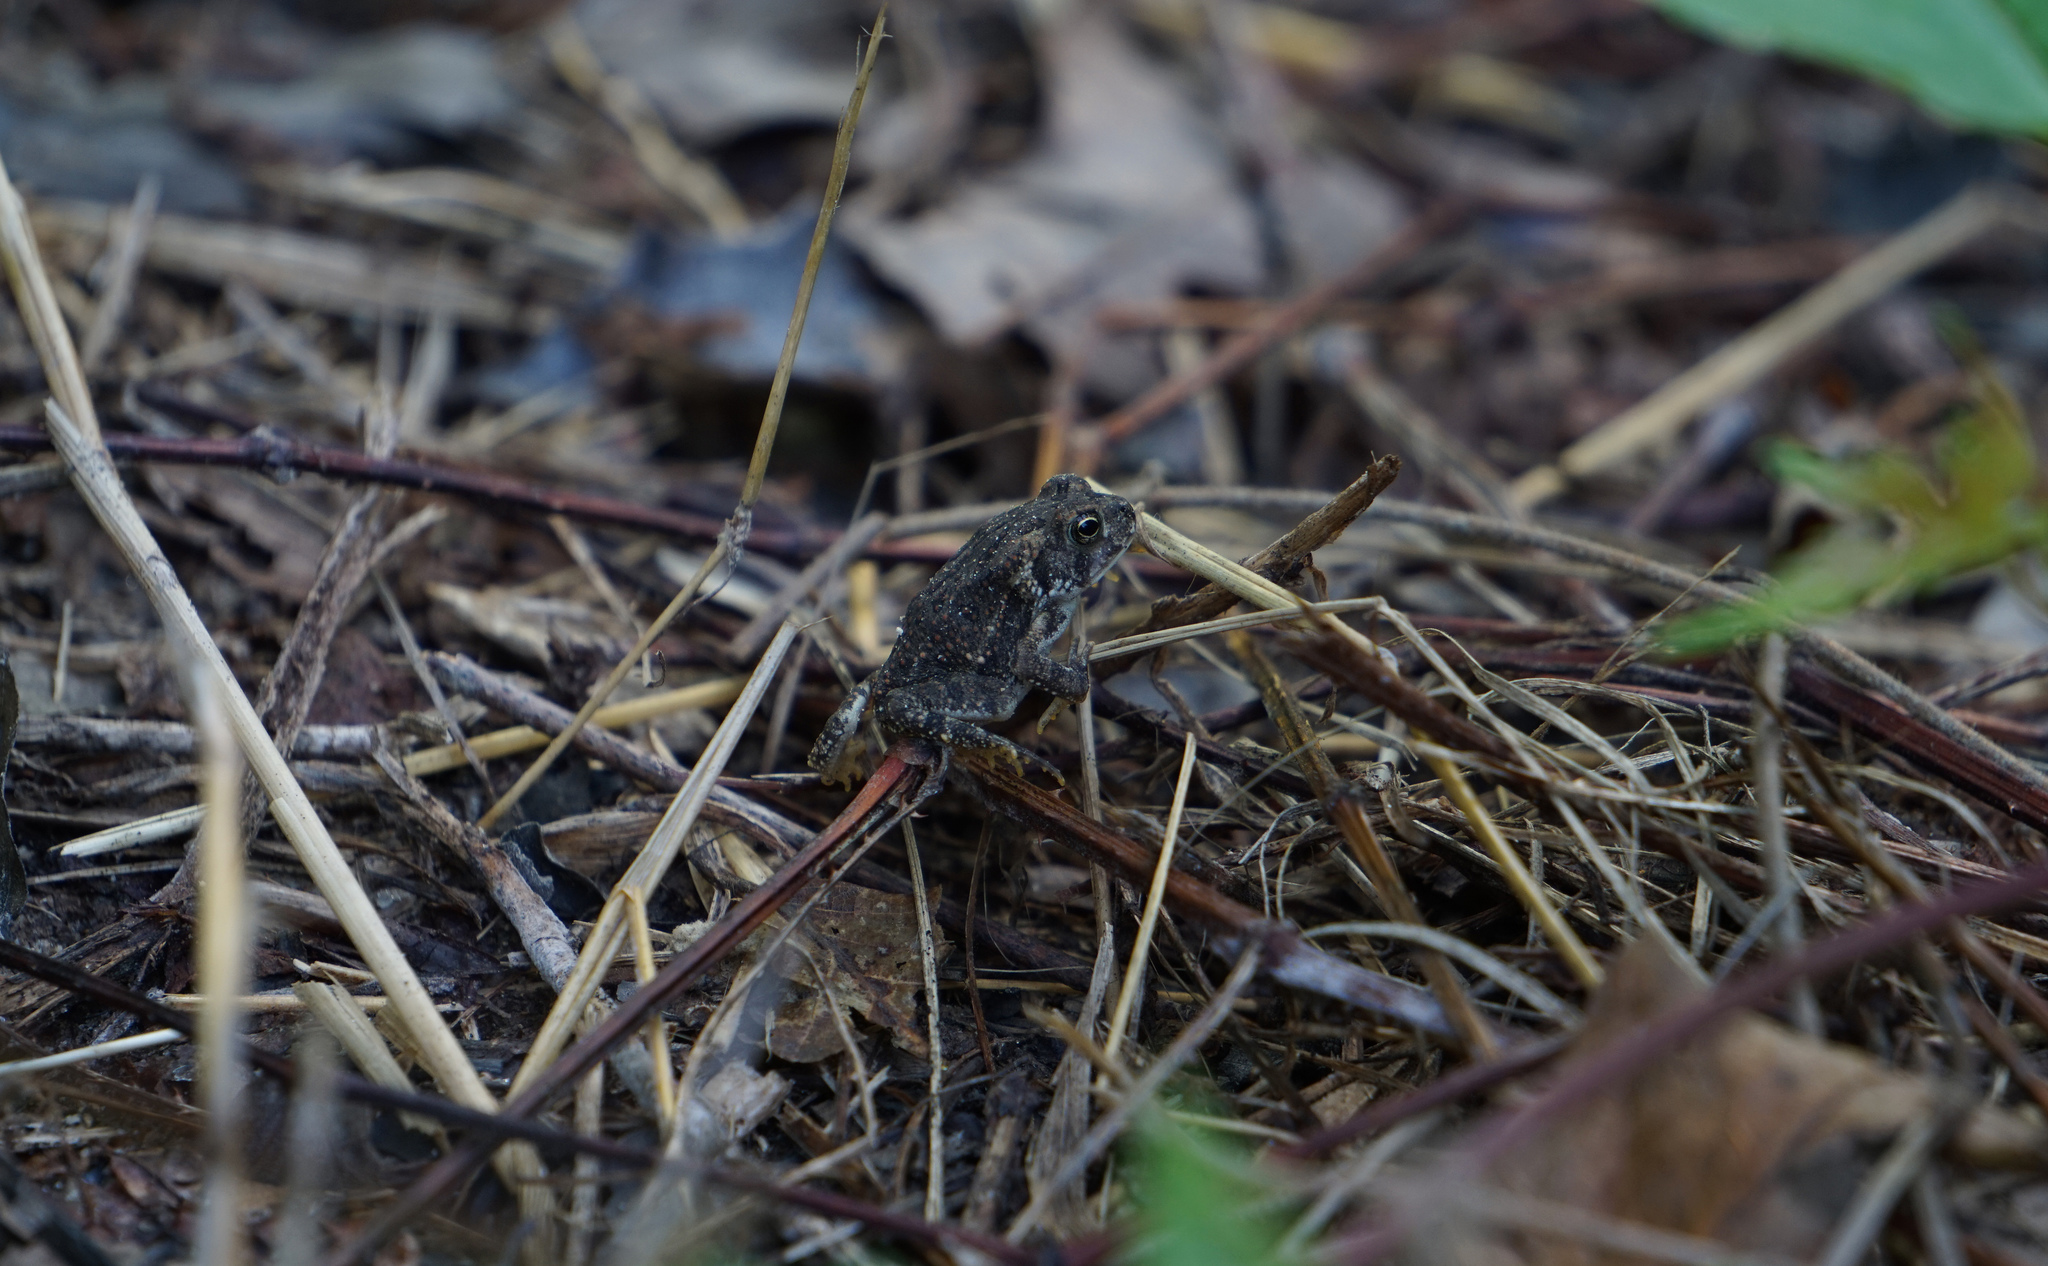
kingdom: Animalia
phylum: Chordata
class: Amphibia
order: Anura
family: Bufonidae
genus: Anaxyrus
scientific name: Anaxyrus fowleri
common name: Fowler's toad
